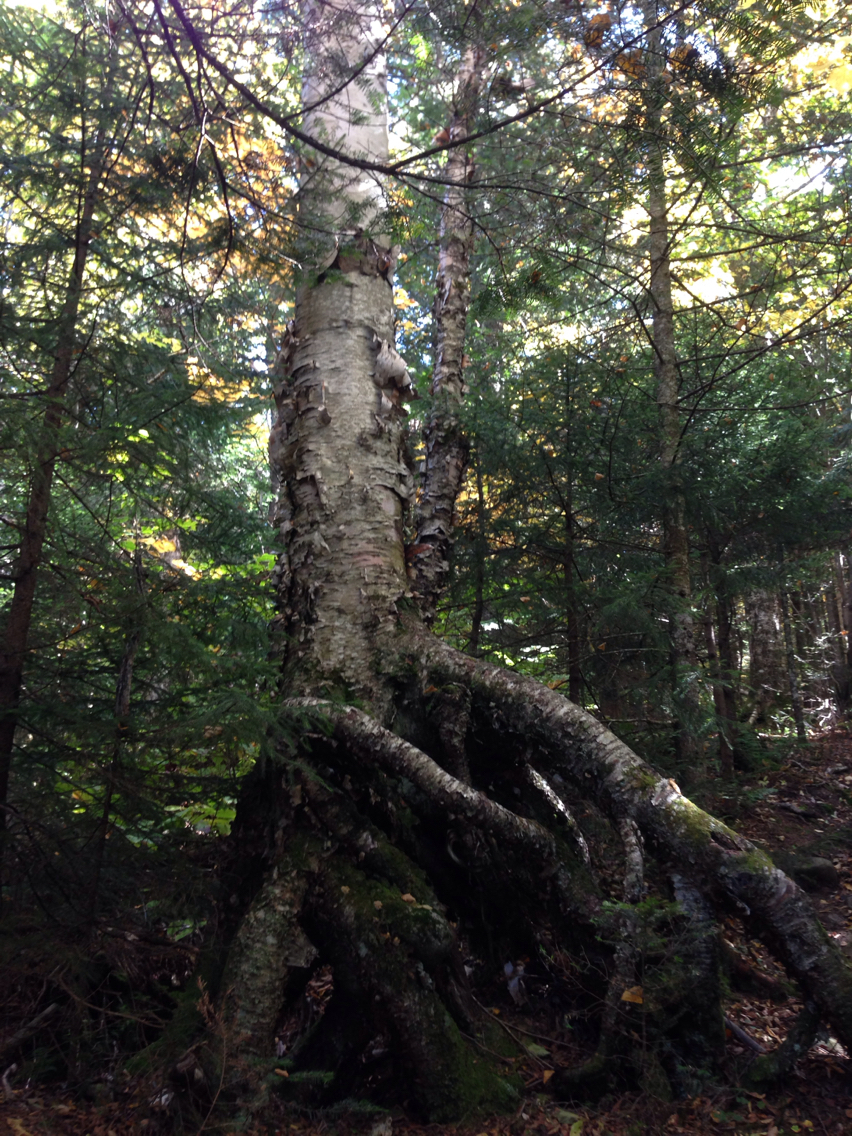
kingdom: Plantae
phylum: Tracheophyta
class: Magnoliopsida
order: Fagales
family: Betulaceae
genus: Betula
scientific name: Betula papyrifera
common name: Paper birch
